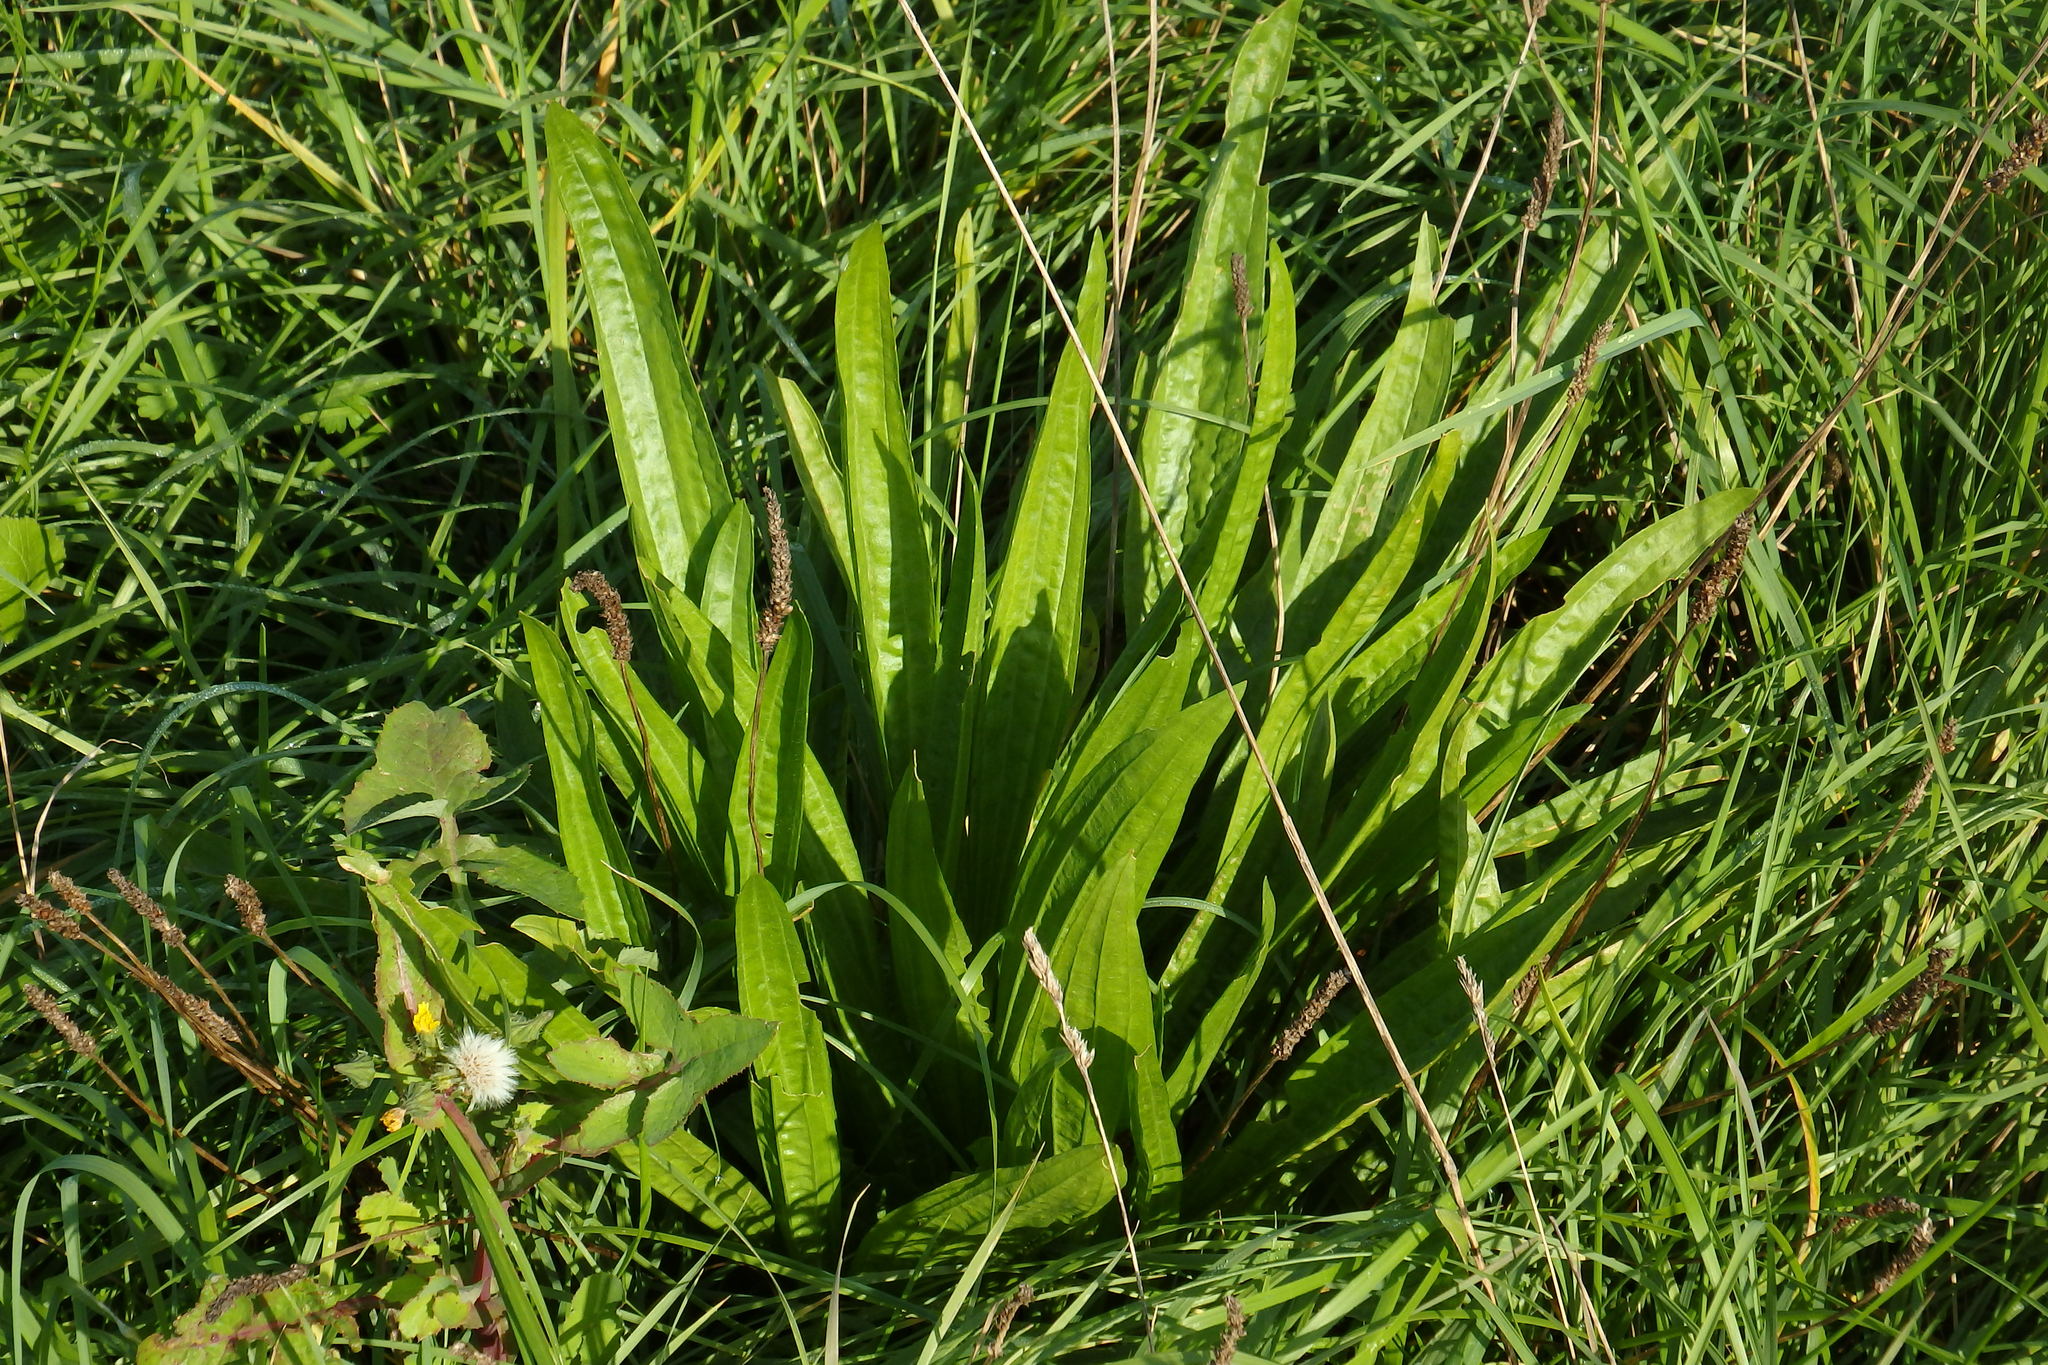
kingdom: Plantae
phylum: Tracheophyta
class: Magnoliopsida
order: Lamiales
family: Plantaginaceae
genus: Plantago
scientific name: Plantago lanceolata
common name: Ribwort plantain
